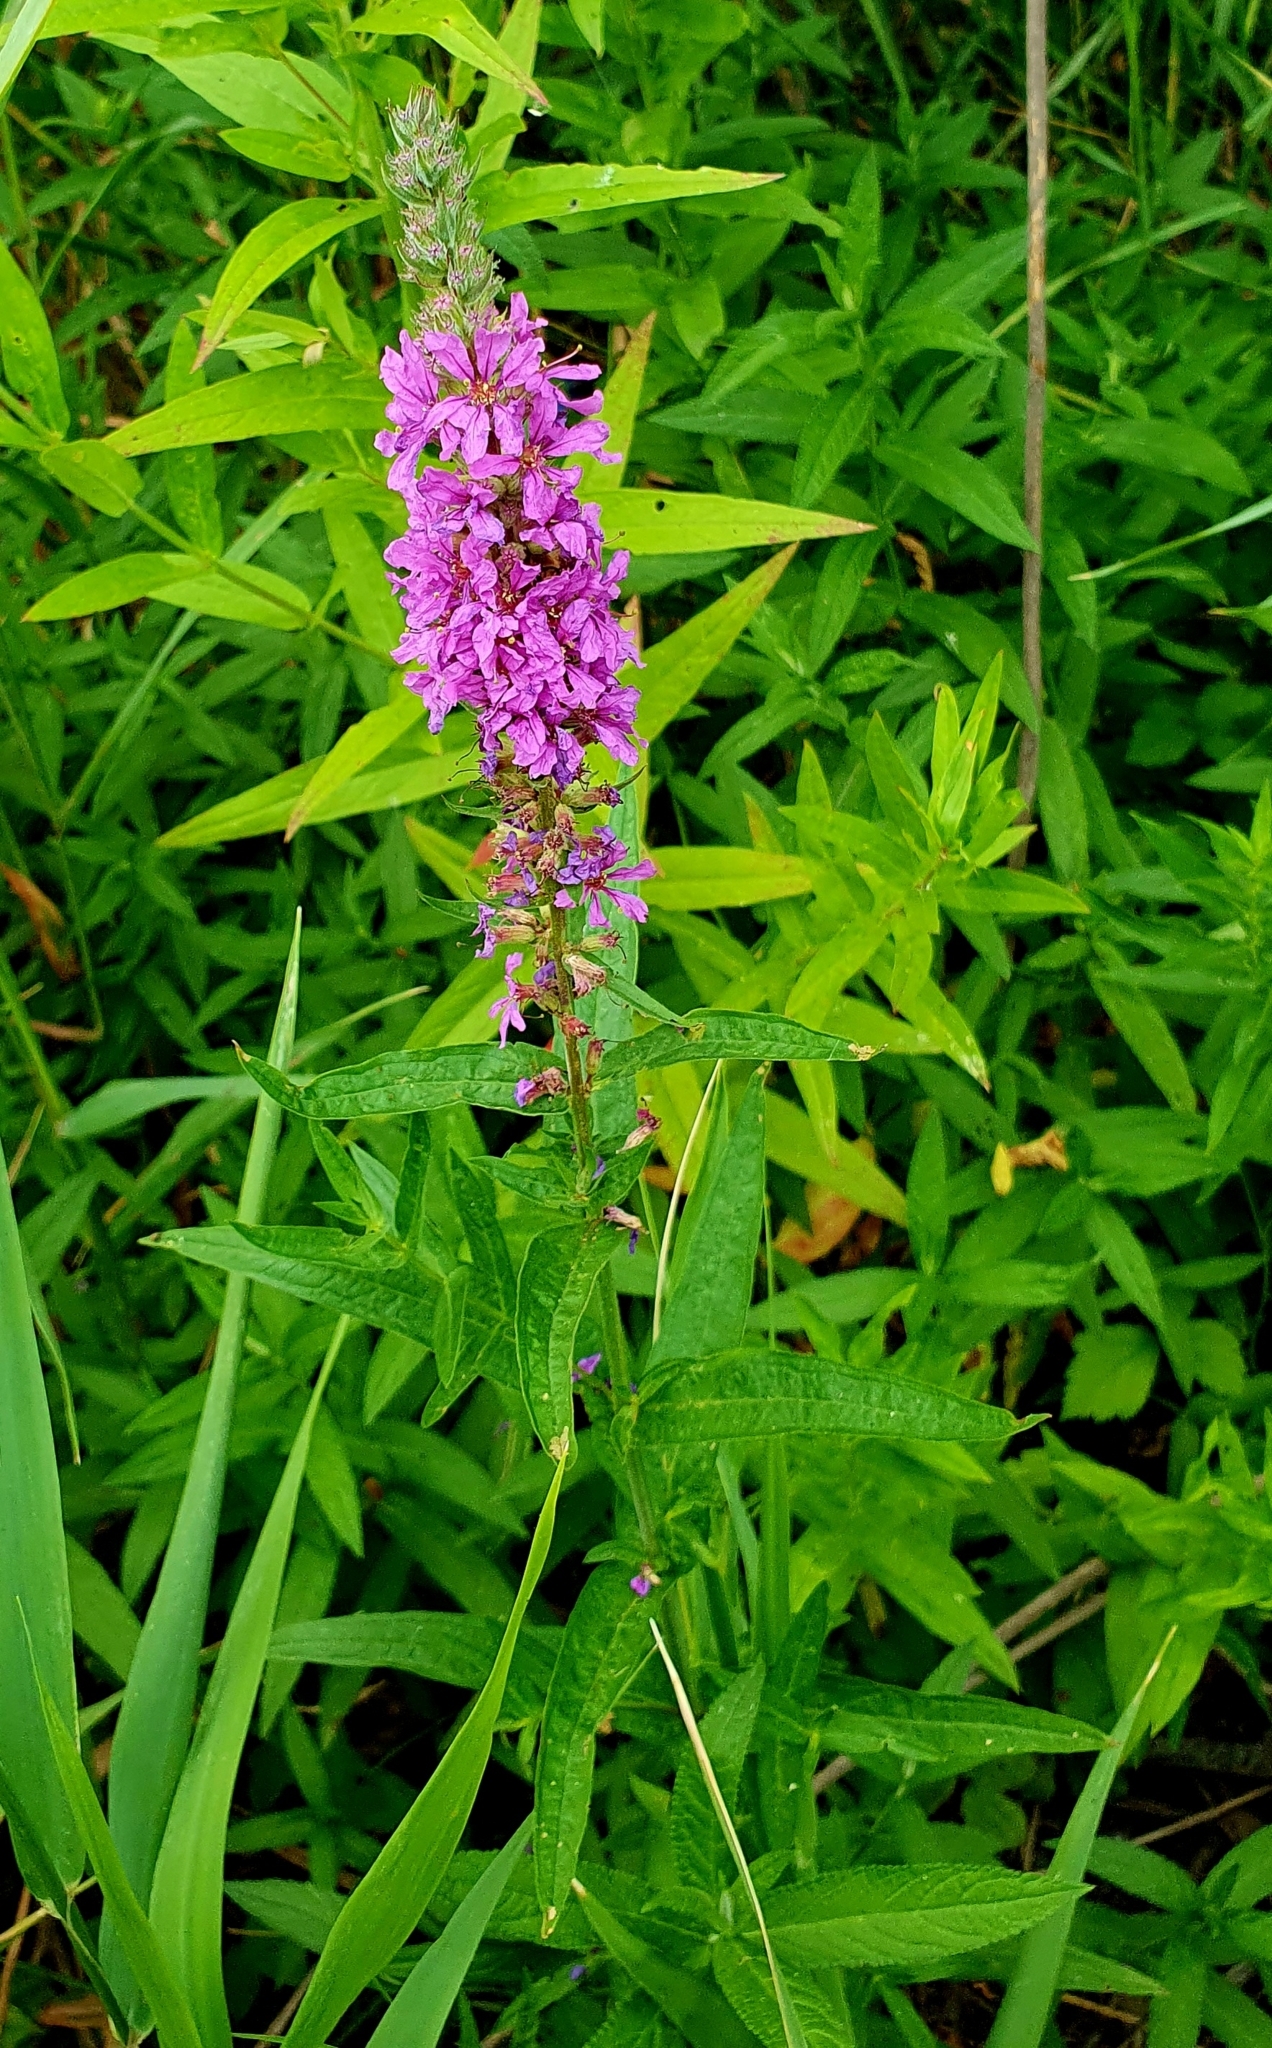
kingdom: Plantae
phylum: Tracheophyta
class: Magnoliopsida
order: Myrtales
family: Lythraceae
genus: Lythrum
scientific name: Lythrum salicaria
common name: Purple loosestrife
